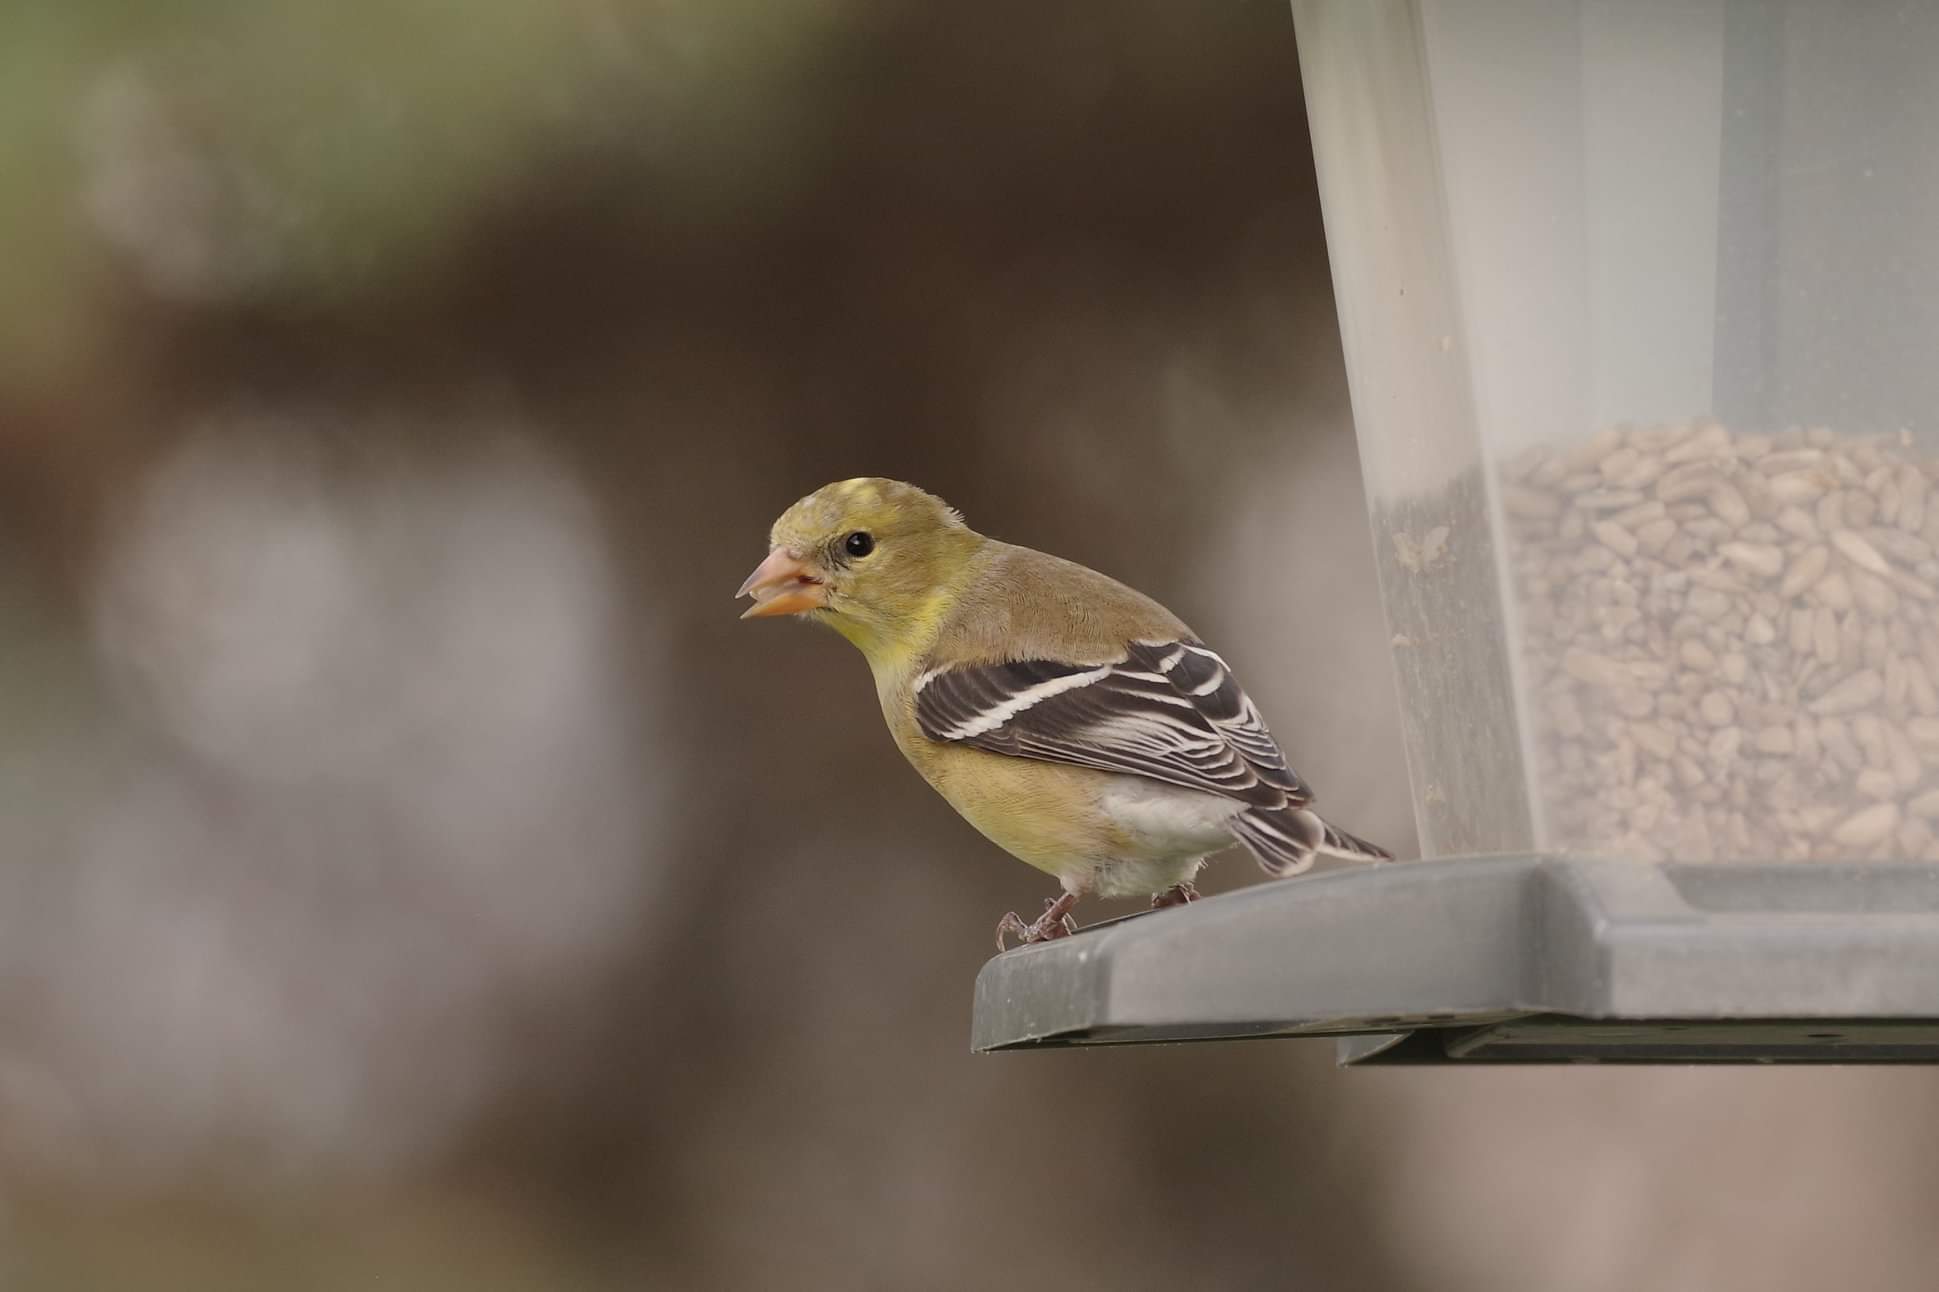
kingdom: Animalia
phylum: Chordata
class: Aves
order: Passeriformes
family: Fringillidae
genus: Spinus
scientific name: Spinus tristis
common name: American goldfinch
